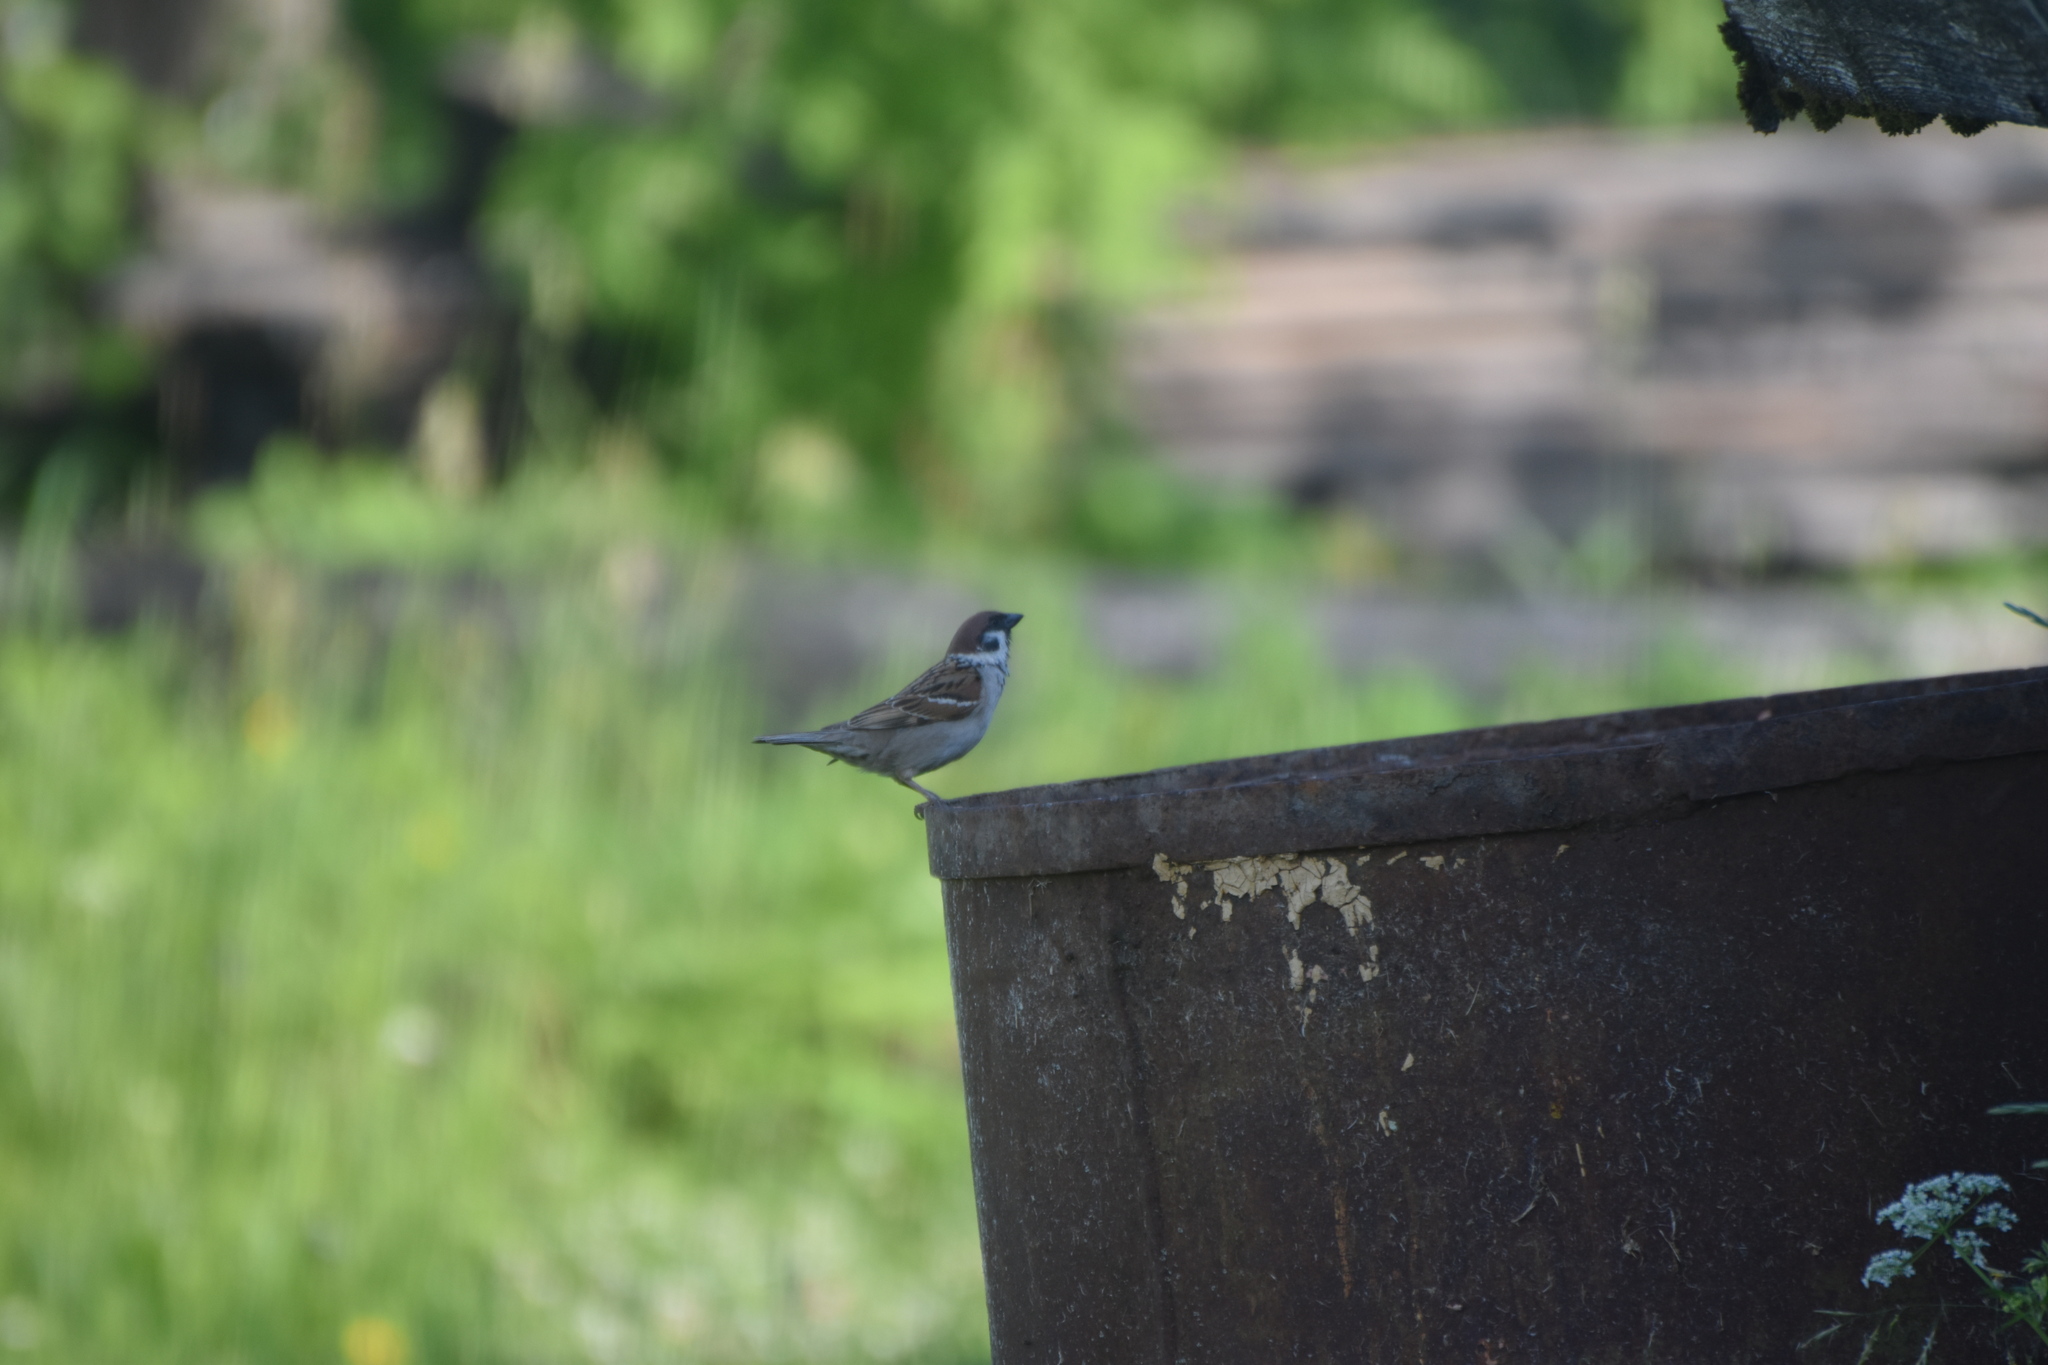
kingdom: Animalia
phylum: Chordata
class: Aves
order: Passeriformes
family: Passeridae
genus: Passer
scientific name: Passer montanus
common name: Eurasian tree sparrow
